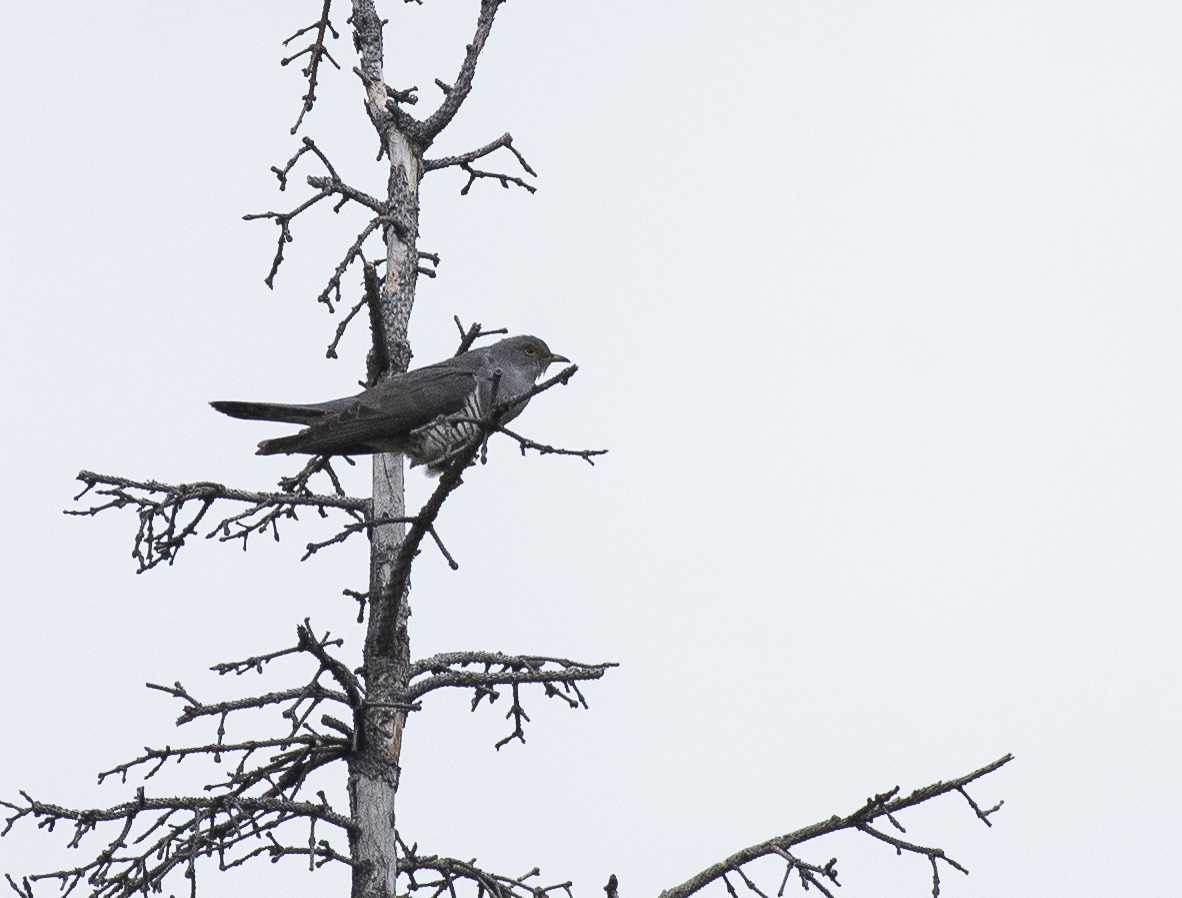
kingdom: Animalia
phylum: Chordata
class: Aves
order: Cuculiformes
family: Cuculidae
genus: Cuculus
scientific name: Cuculus optatus
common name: Oriental cuckoo
